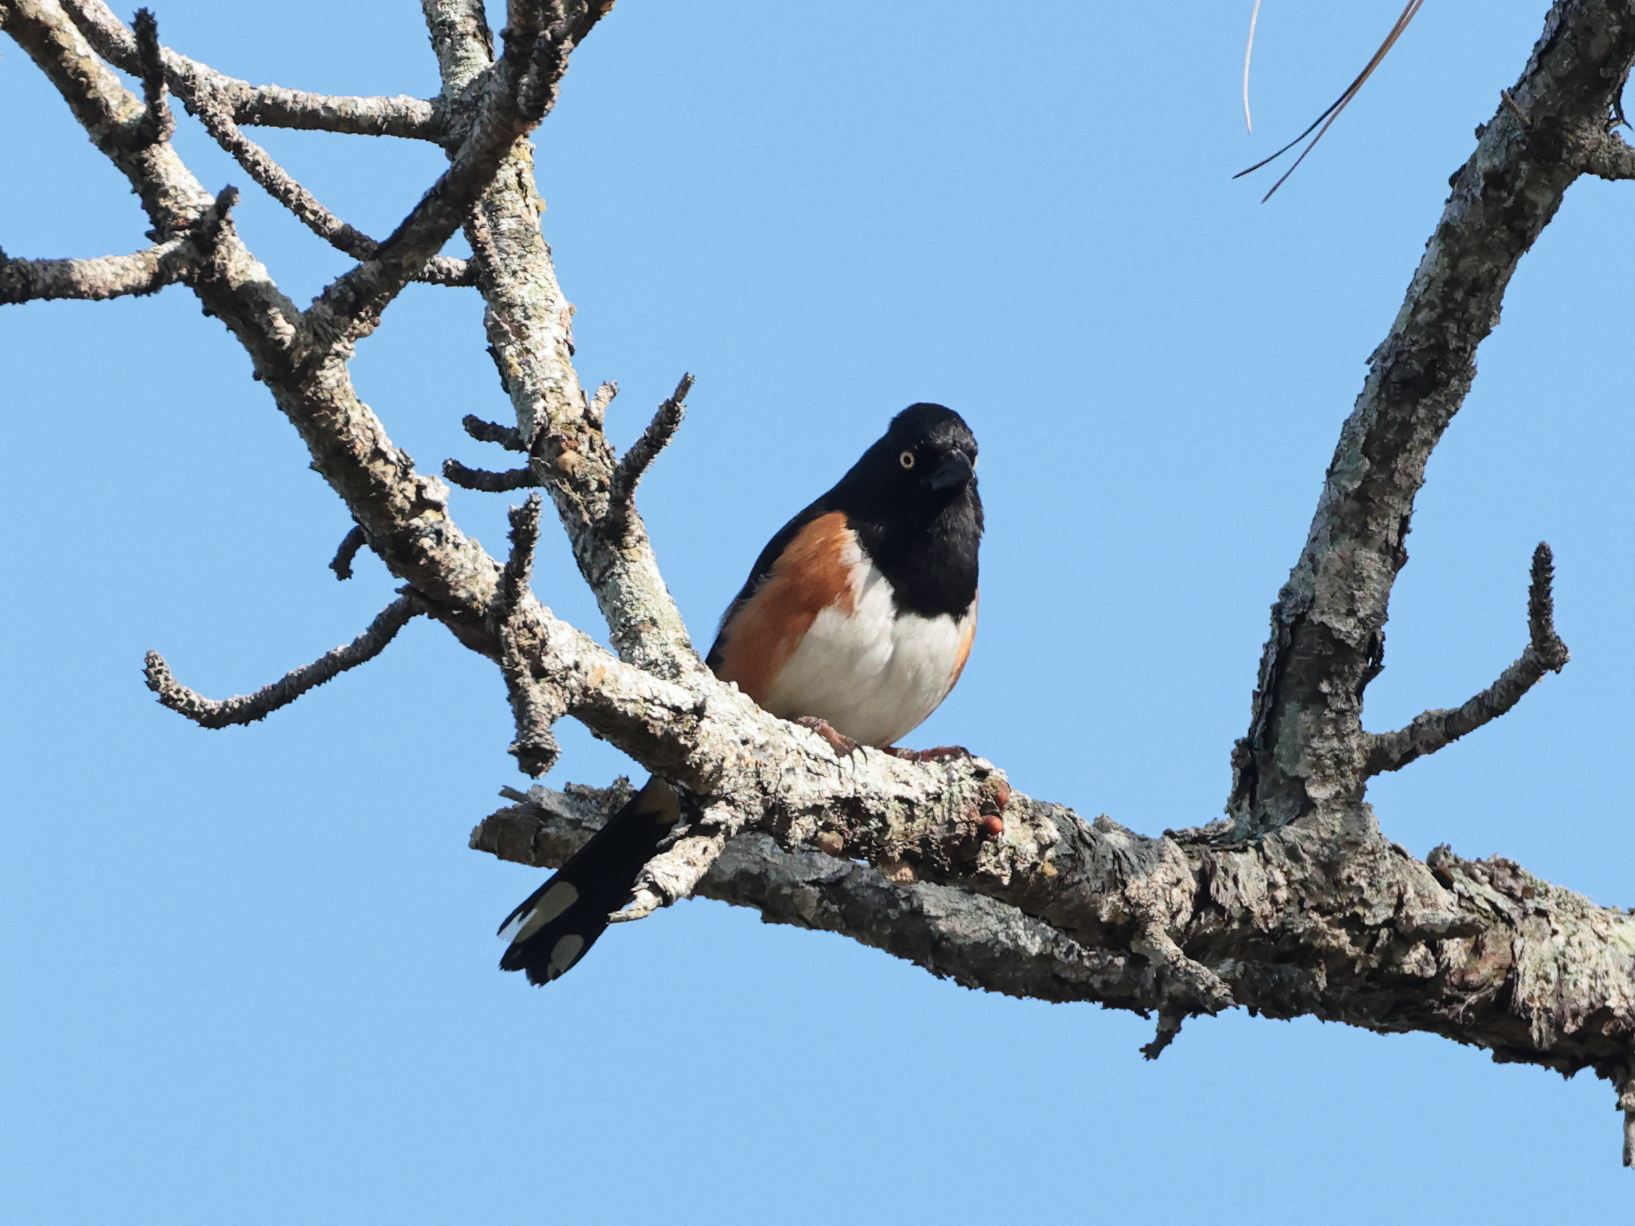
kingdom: Animalia
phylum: Chordata
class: Aves
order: Passeriformes
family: Passerellidae
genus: Pipilo
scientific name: Pipilo erythrophthalmus
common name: Eastern towhee
